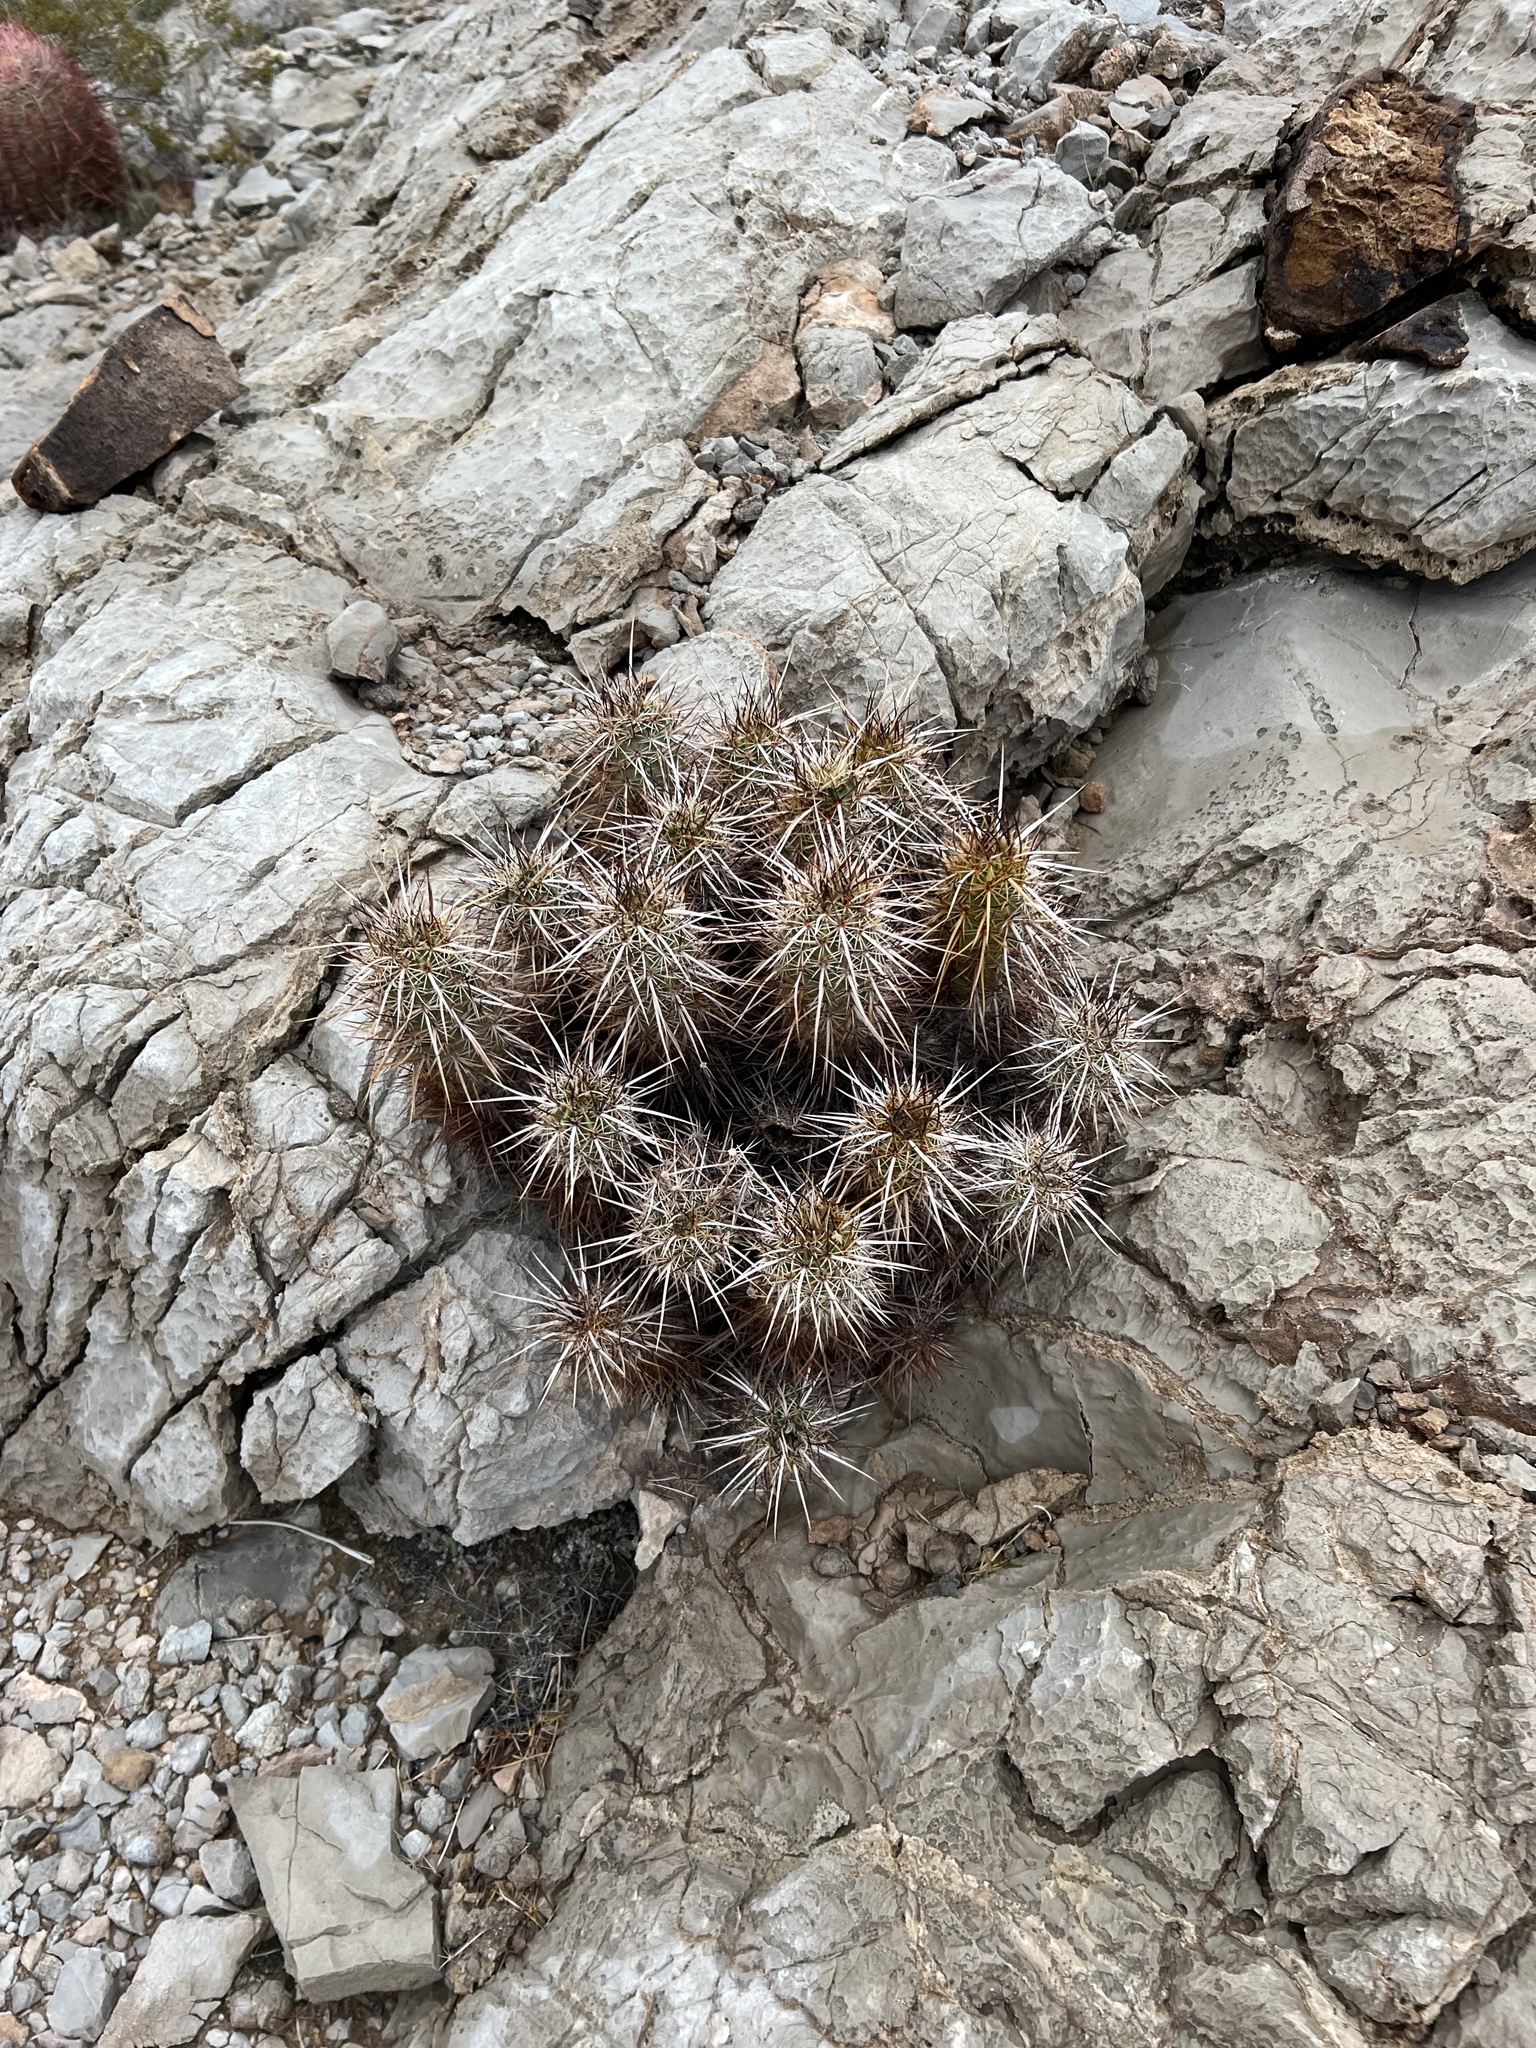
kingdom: Plantae
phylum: Tracheophyta
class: Magnoliopsida
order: Caryophyllales
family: Cactaceae
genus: Echinocereus
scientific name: Echinocereus engelmannii
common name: Engelmann's hedgehog cactus
